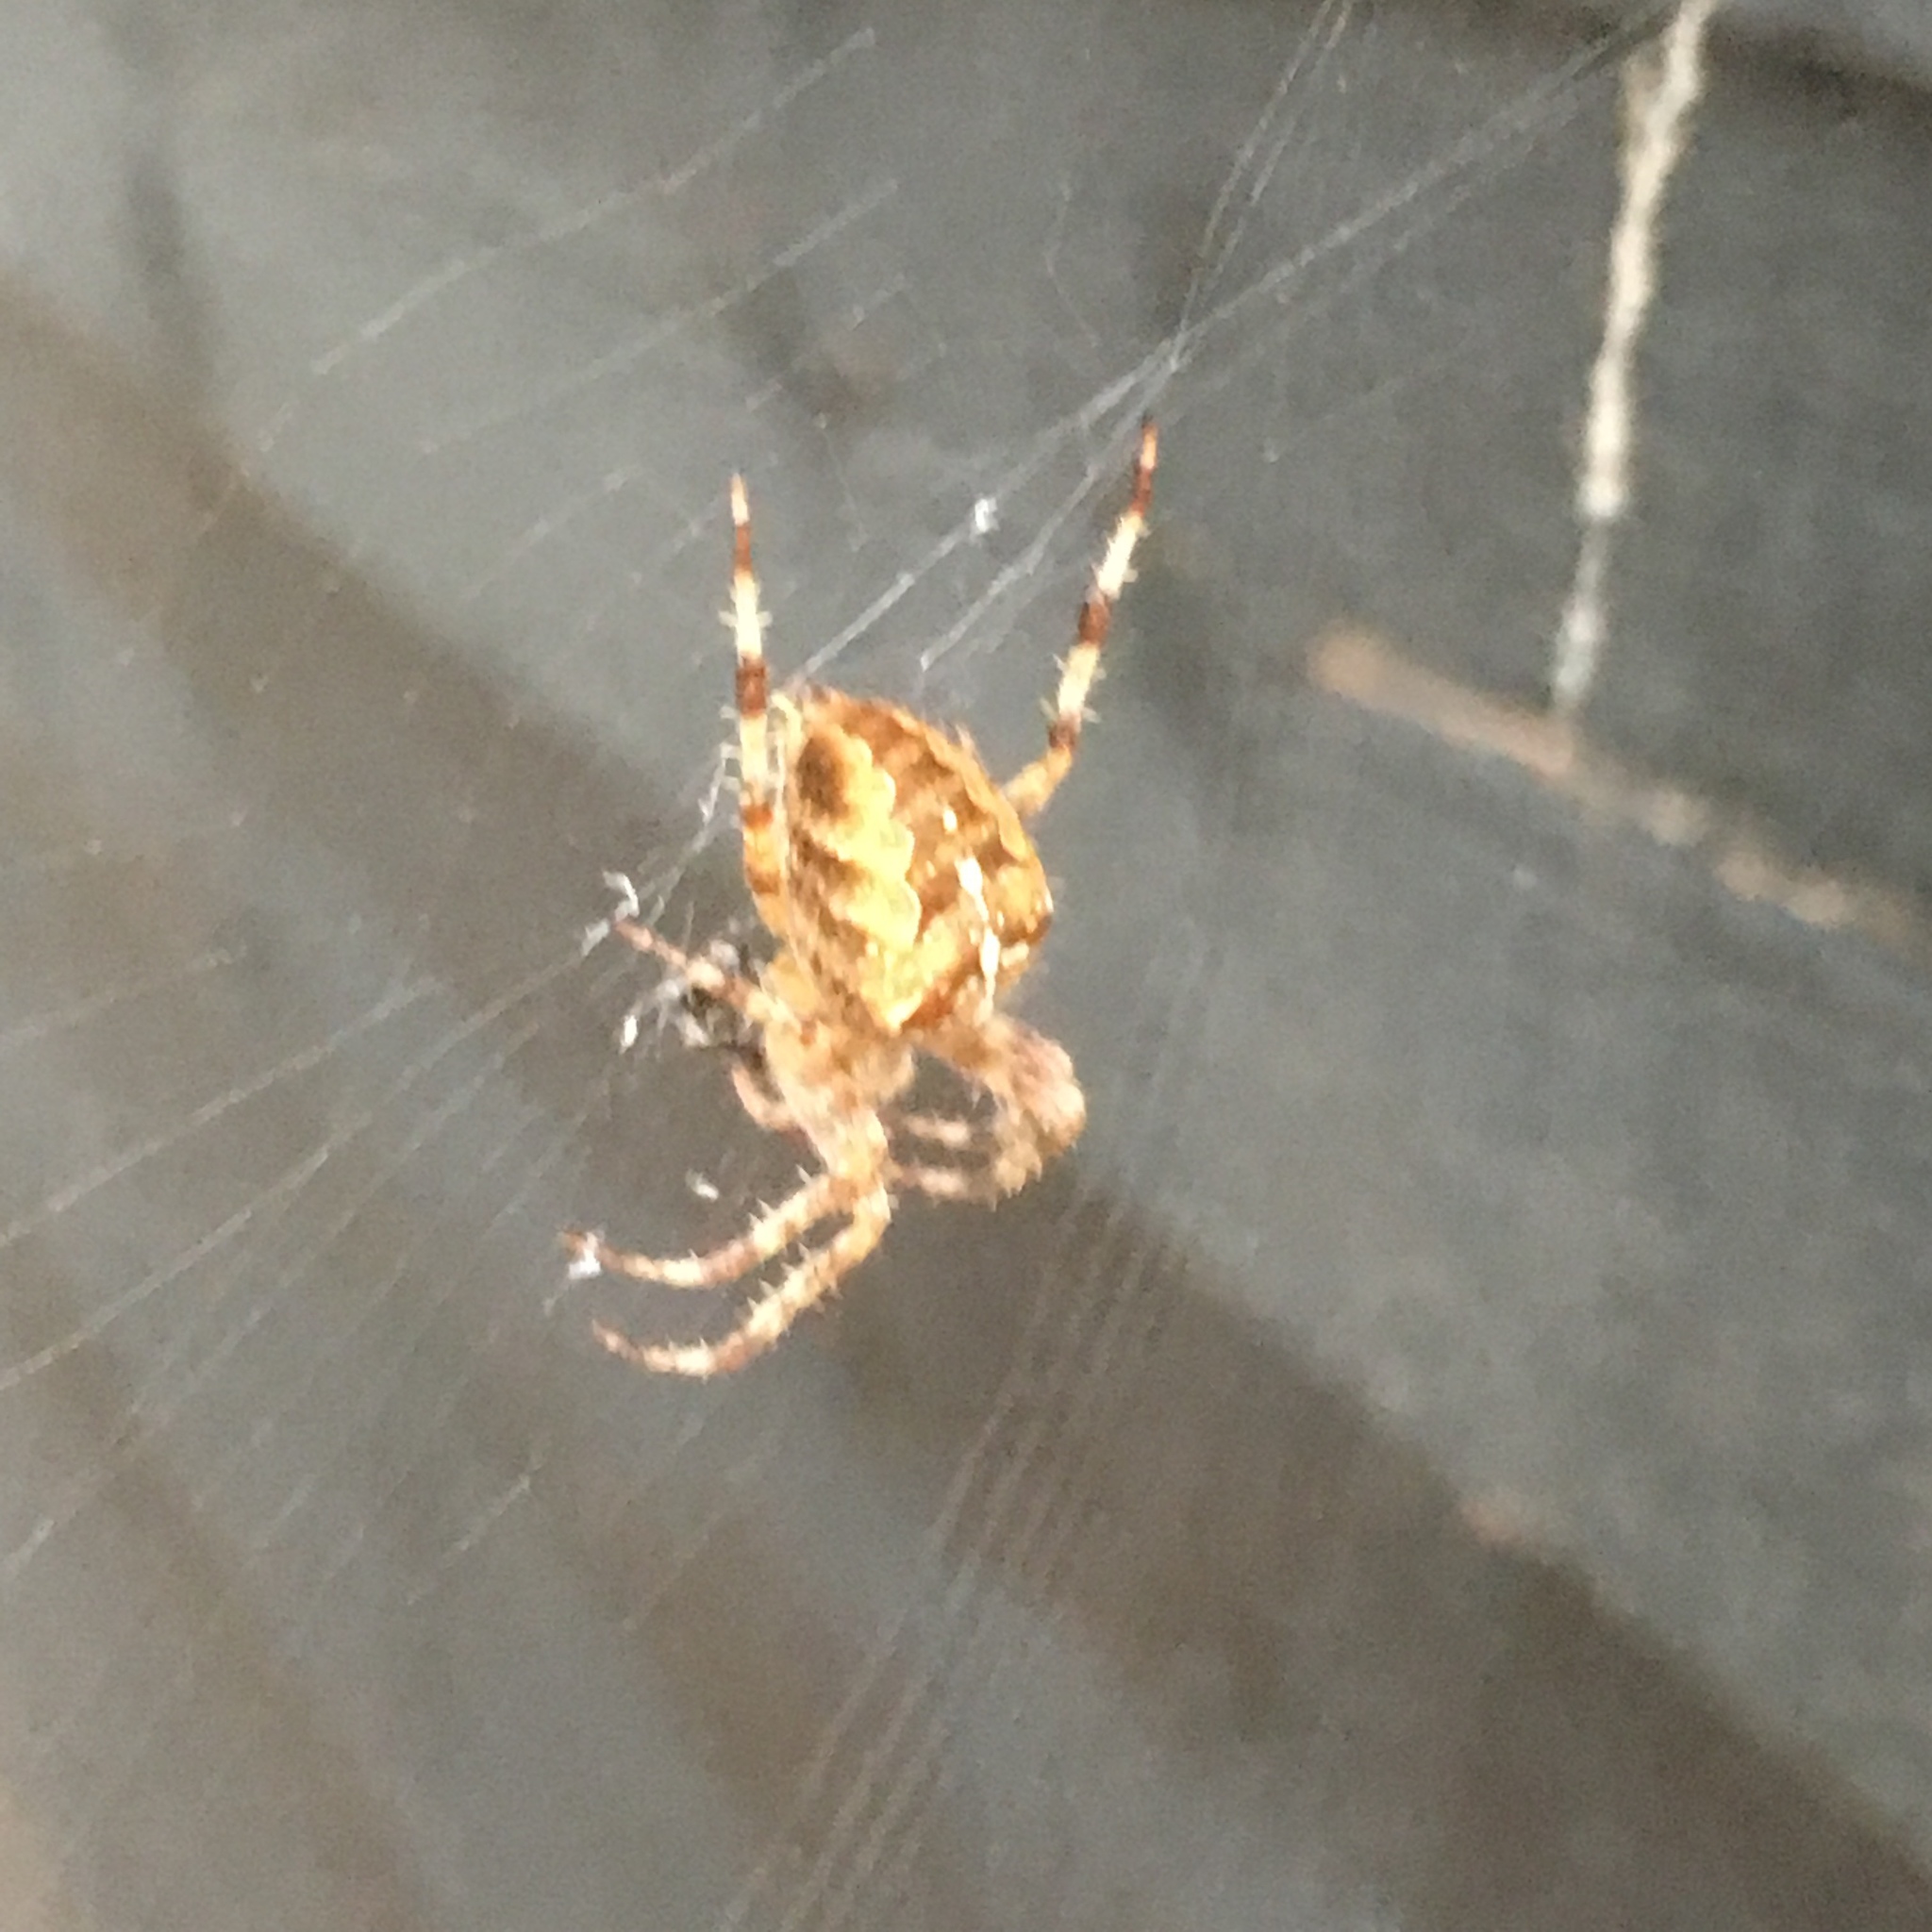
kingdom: Animalia
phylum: Arthropoda
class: Arachnida
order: Araneae
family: Araneidae
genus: Araneus
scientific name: Araneus diadematus
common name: Cross orbweaver
